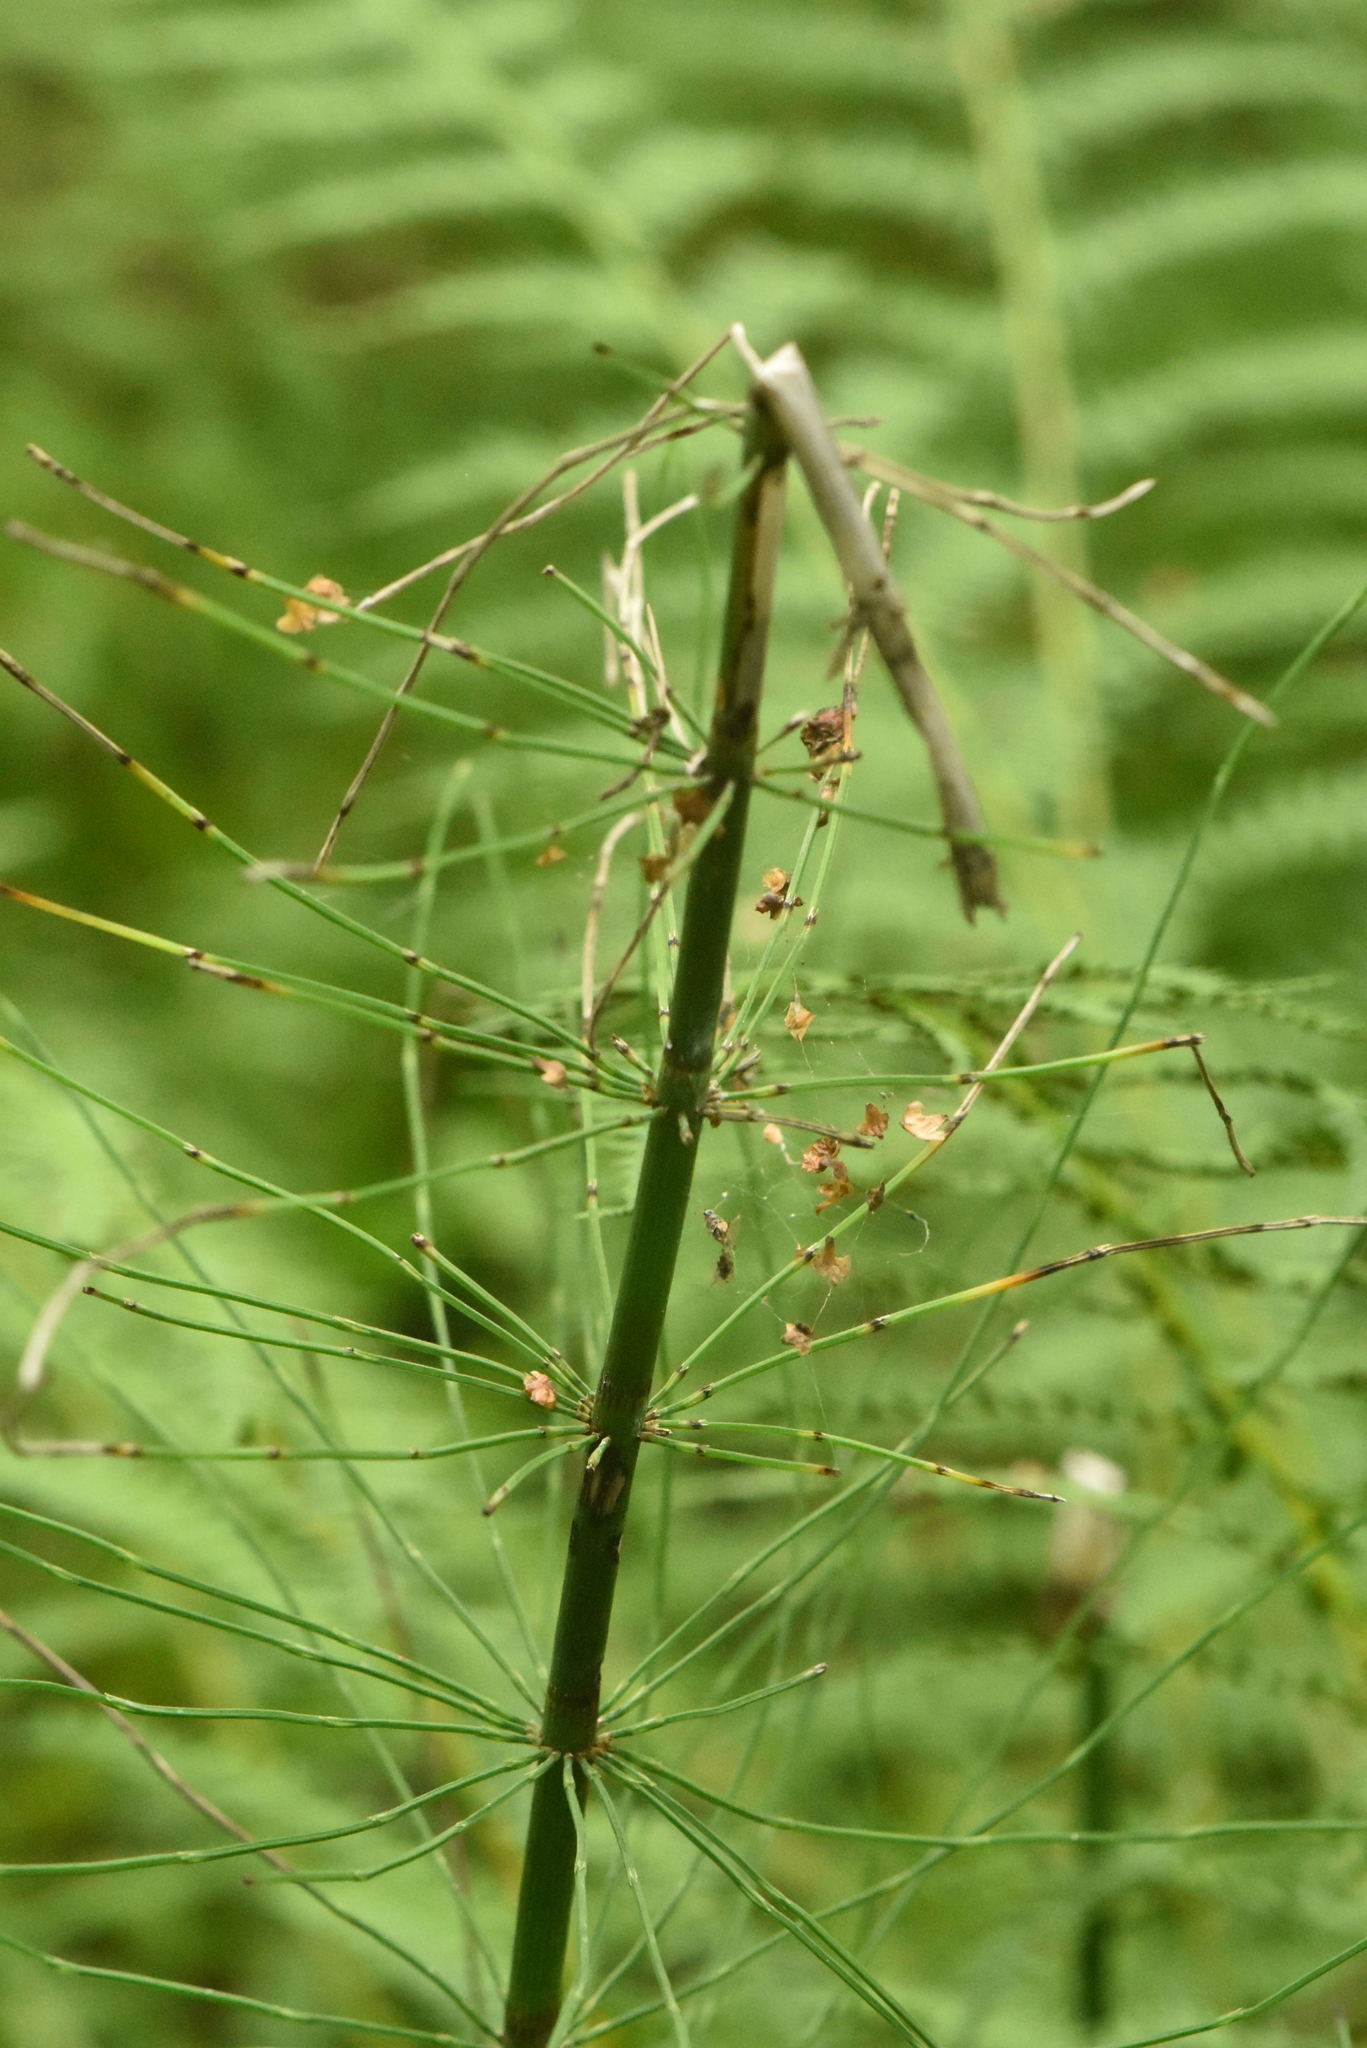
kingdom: Plantae
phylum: Tracheophyta
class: Polypodiopsida
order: Equisetales
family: Equisetaceae
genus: Equisetum
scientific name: Equisetum fluviatile
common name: Water horsetail
